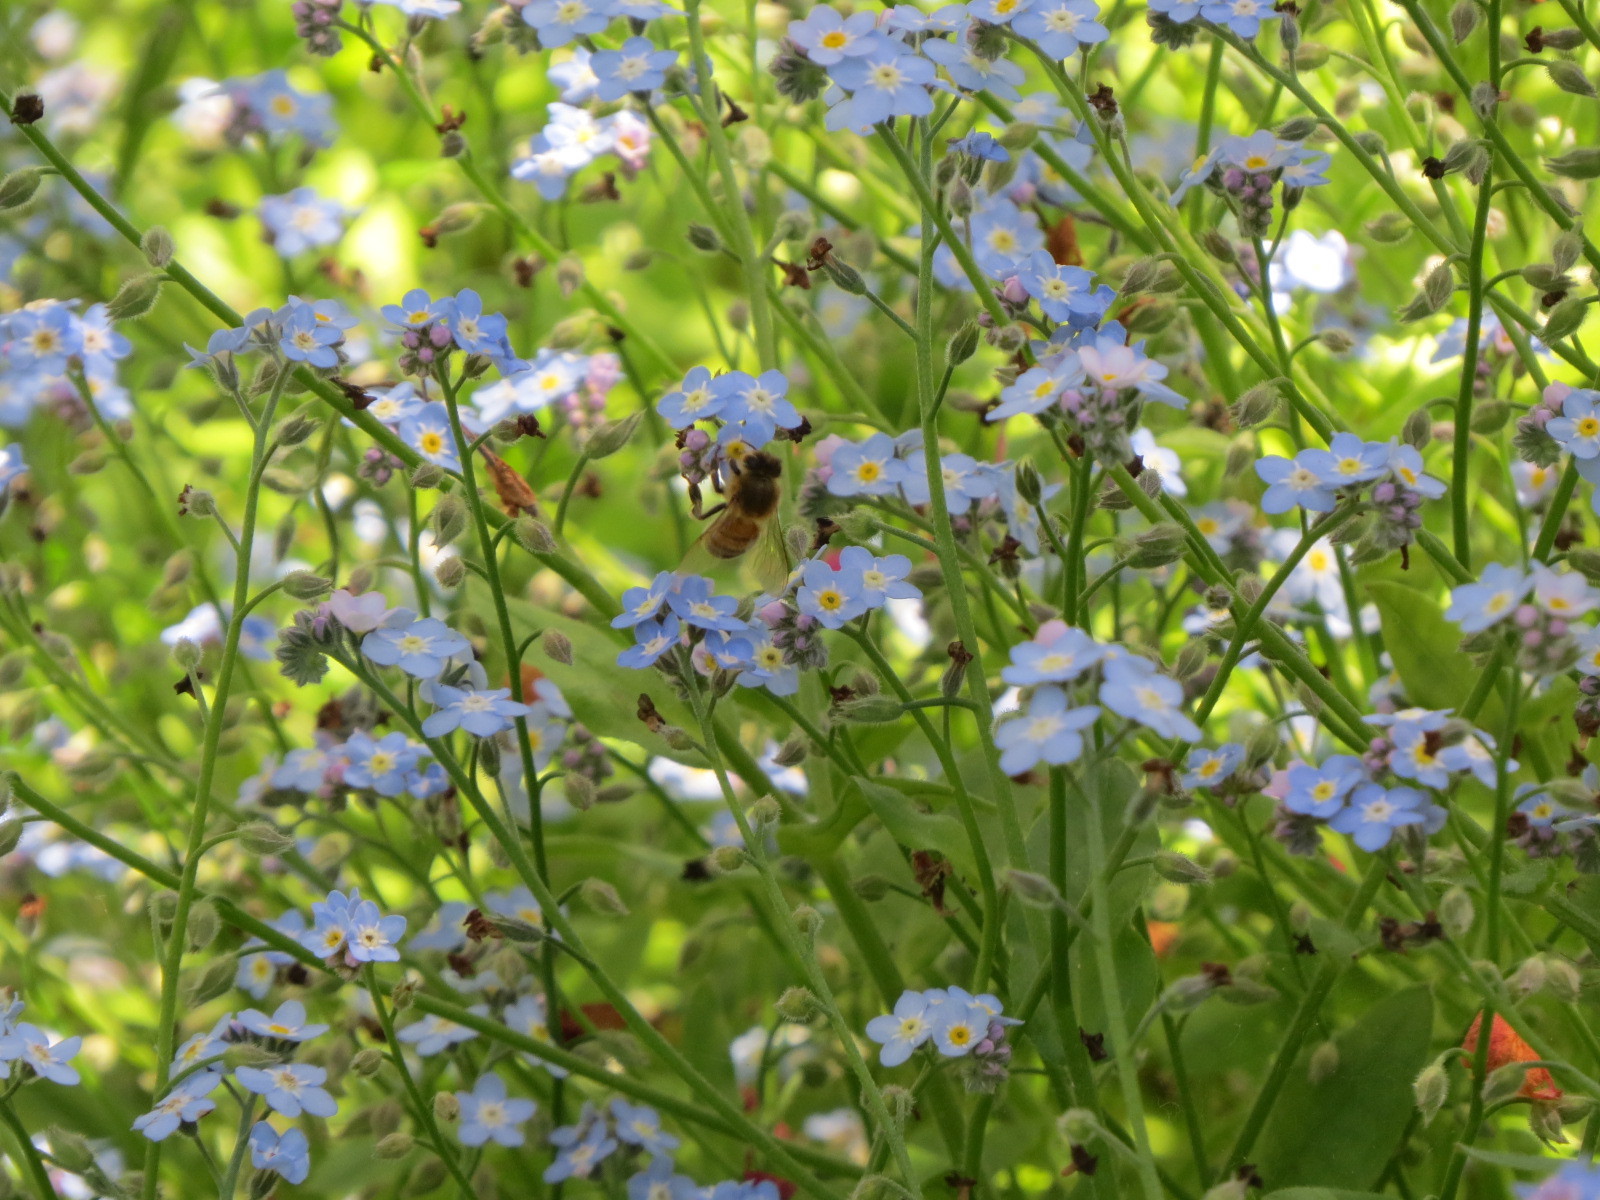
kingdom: Animalia
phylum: Arthropoda
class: Insecta
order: Hymenoptera
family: Apidae
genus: Apis
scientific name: Apis mellifera
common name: Honey bee
